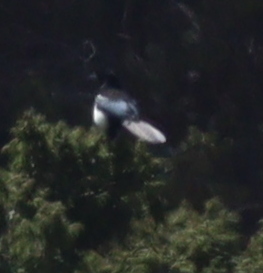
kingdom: Animalia
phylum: Chordata
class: Aves
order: Passeriformes
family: Corvidae
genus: Pica
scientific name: Pica asirensis
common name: Asir magpie
